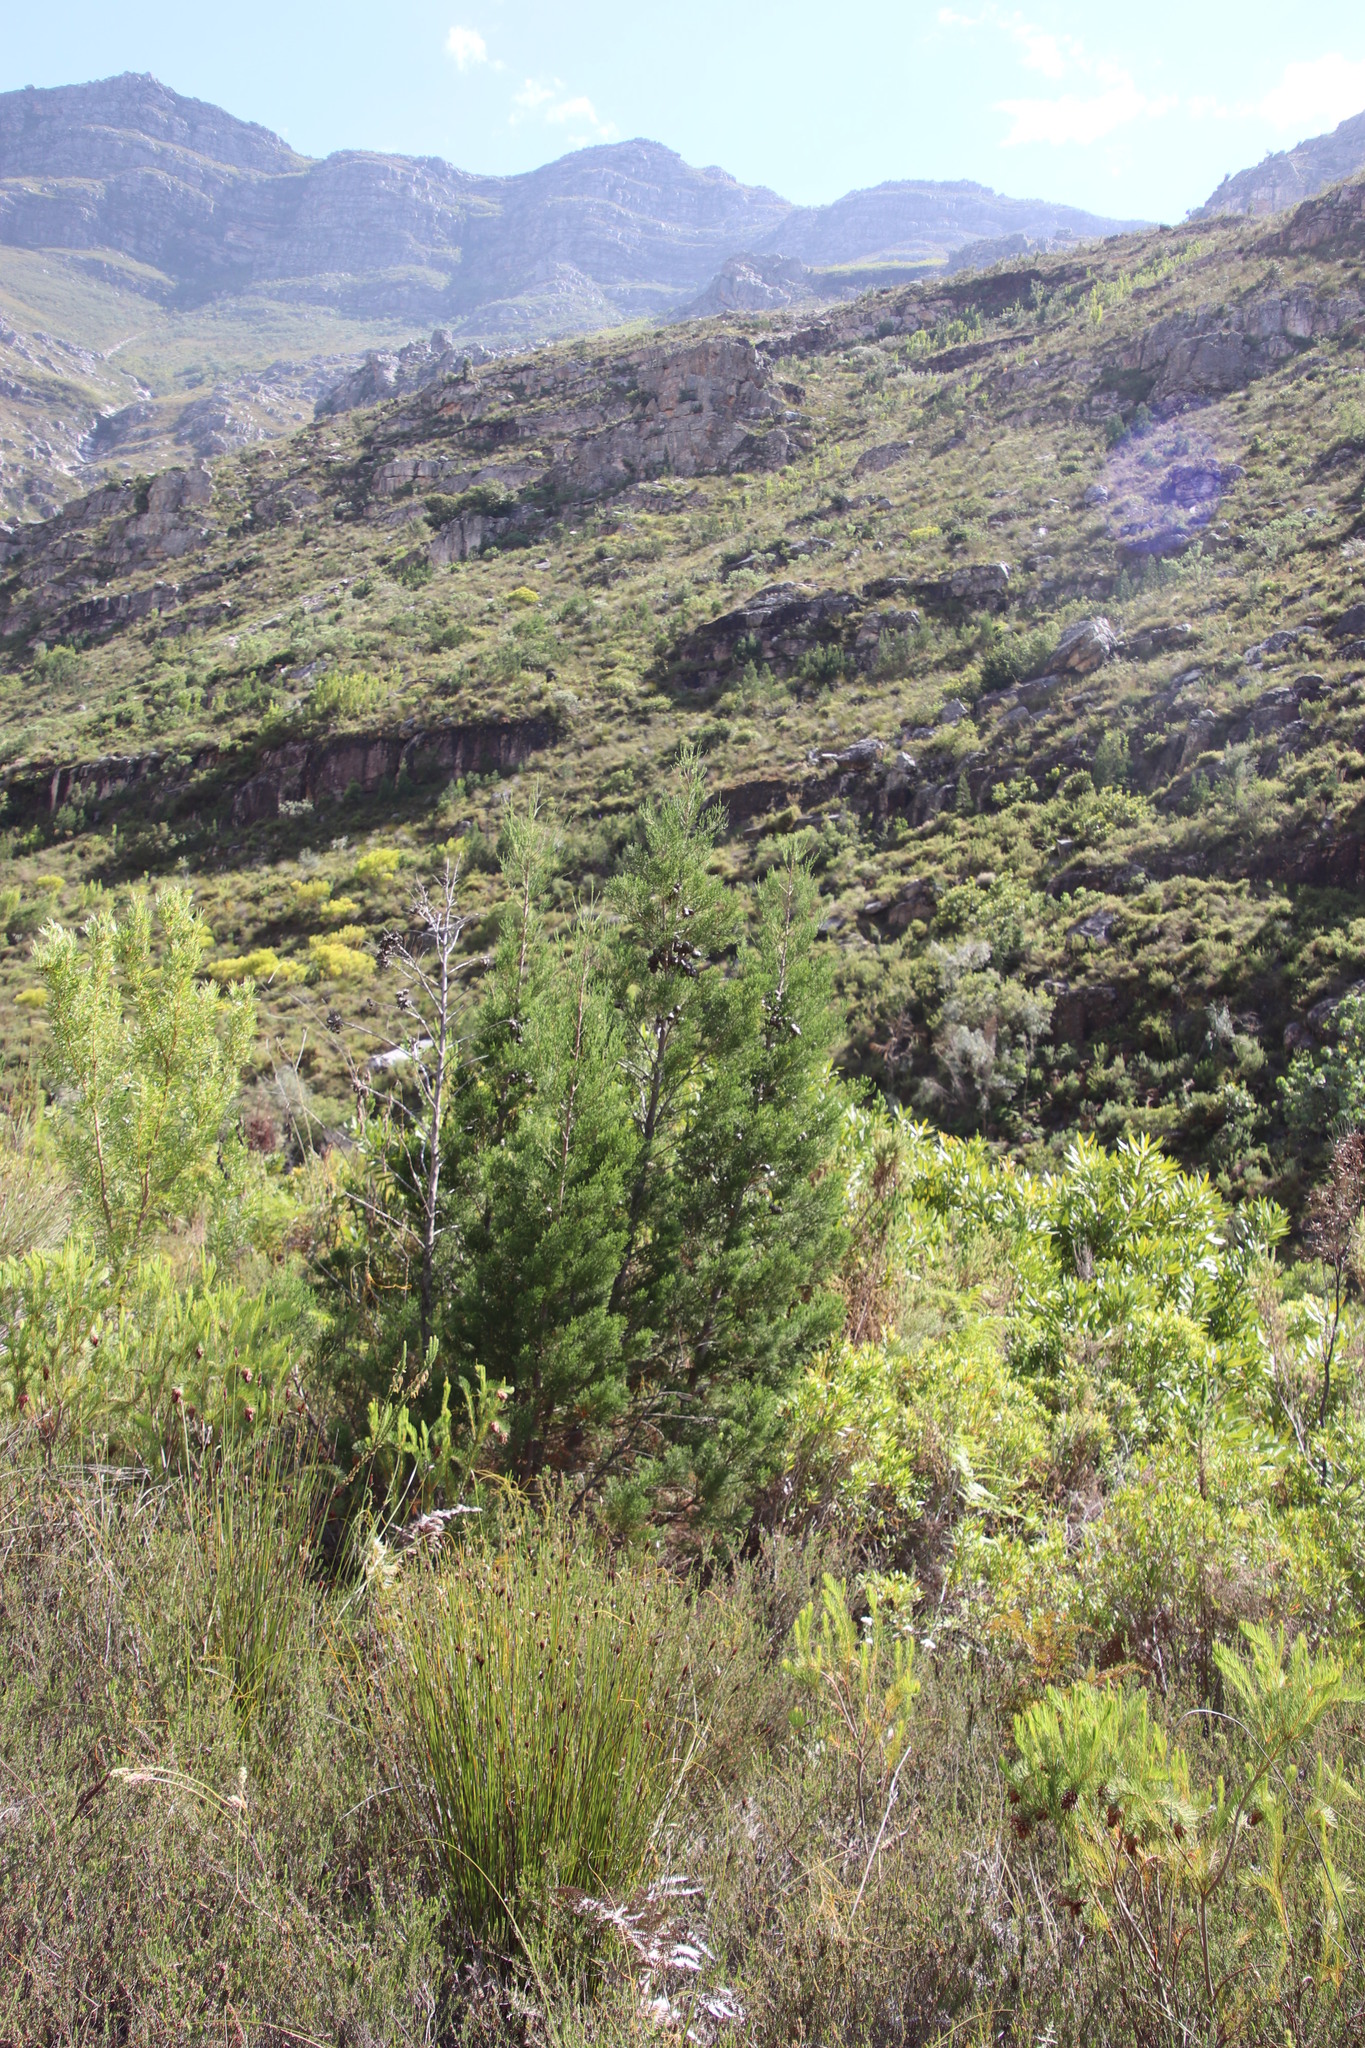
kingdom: Plantae
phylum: Tracheophyta
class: Pinopsida
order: Pinales
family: Cupressaceae
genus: Widdringtonia
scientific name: Widdringtonia nodiflora
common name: Cape cypress
